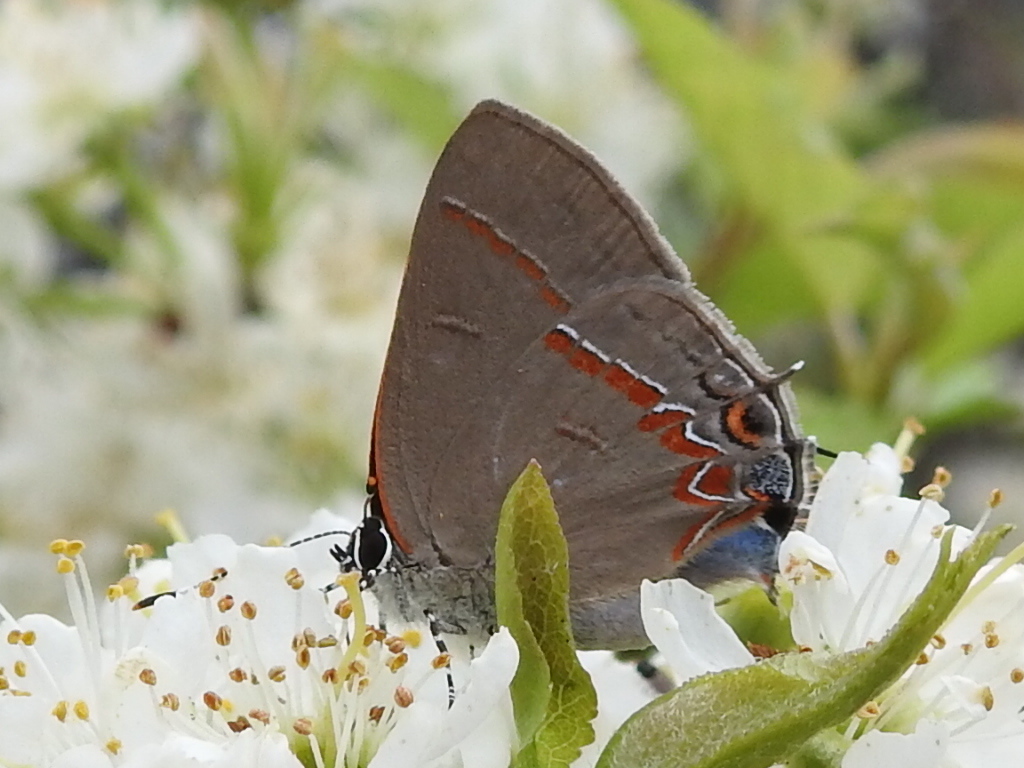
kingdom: Animalia
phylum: Arthropoda
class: Insecta
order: Lepidoptera
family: Lycaenidae
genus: Calycopis
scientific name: Calycopis cecrops
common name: Red-banded hairstreak
